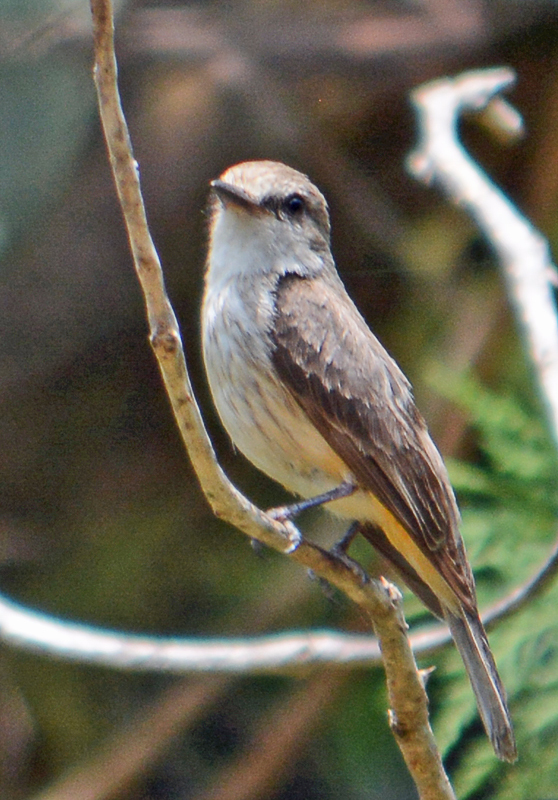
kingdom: Animalia
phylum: Chordata
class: Aves
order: Passeriformes
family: Tyrannidae
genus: Pyrocephalus
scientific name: Pyrocephalus rubinus
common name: Vermilion flycatcher
